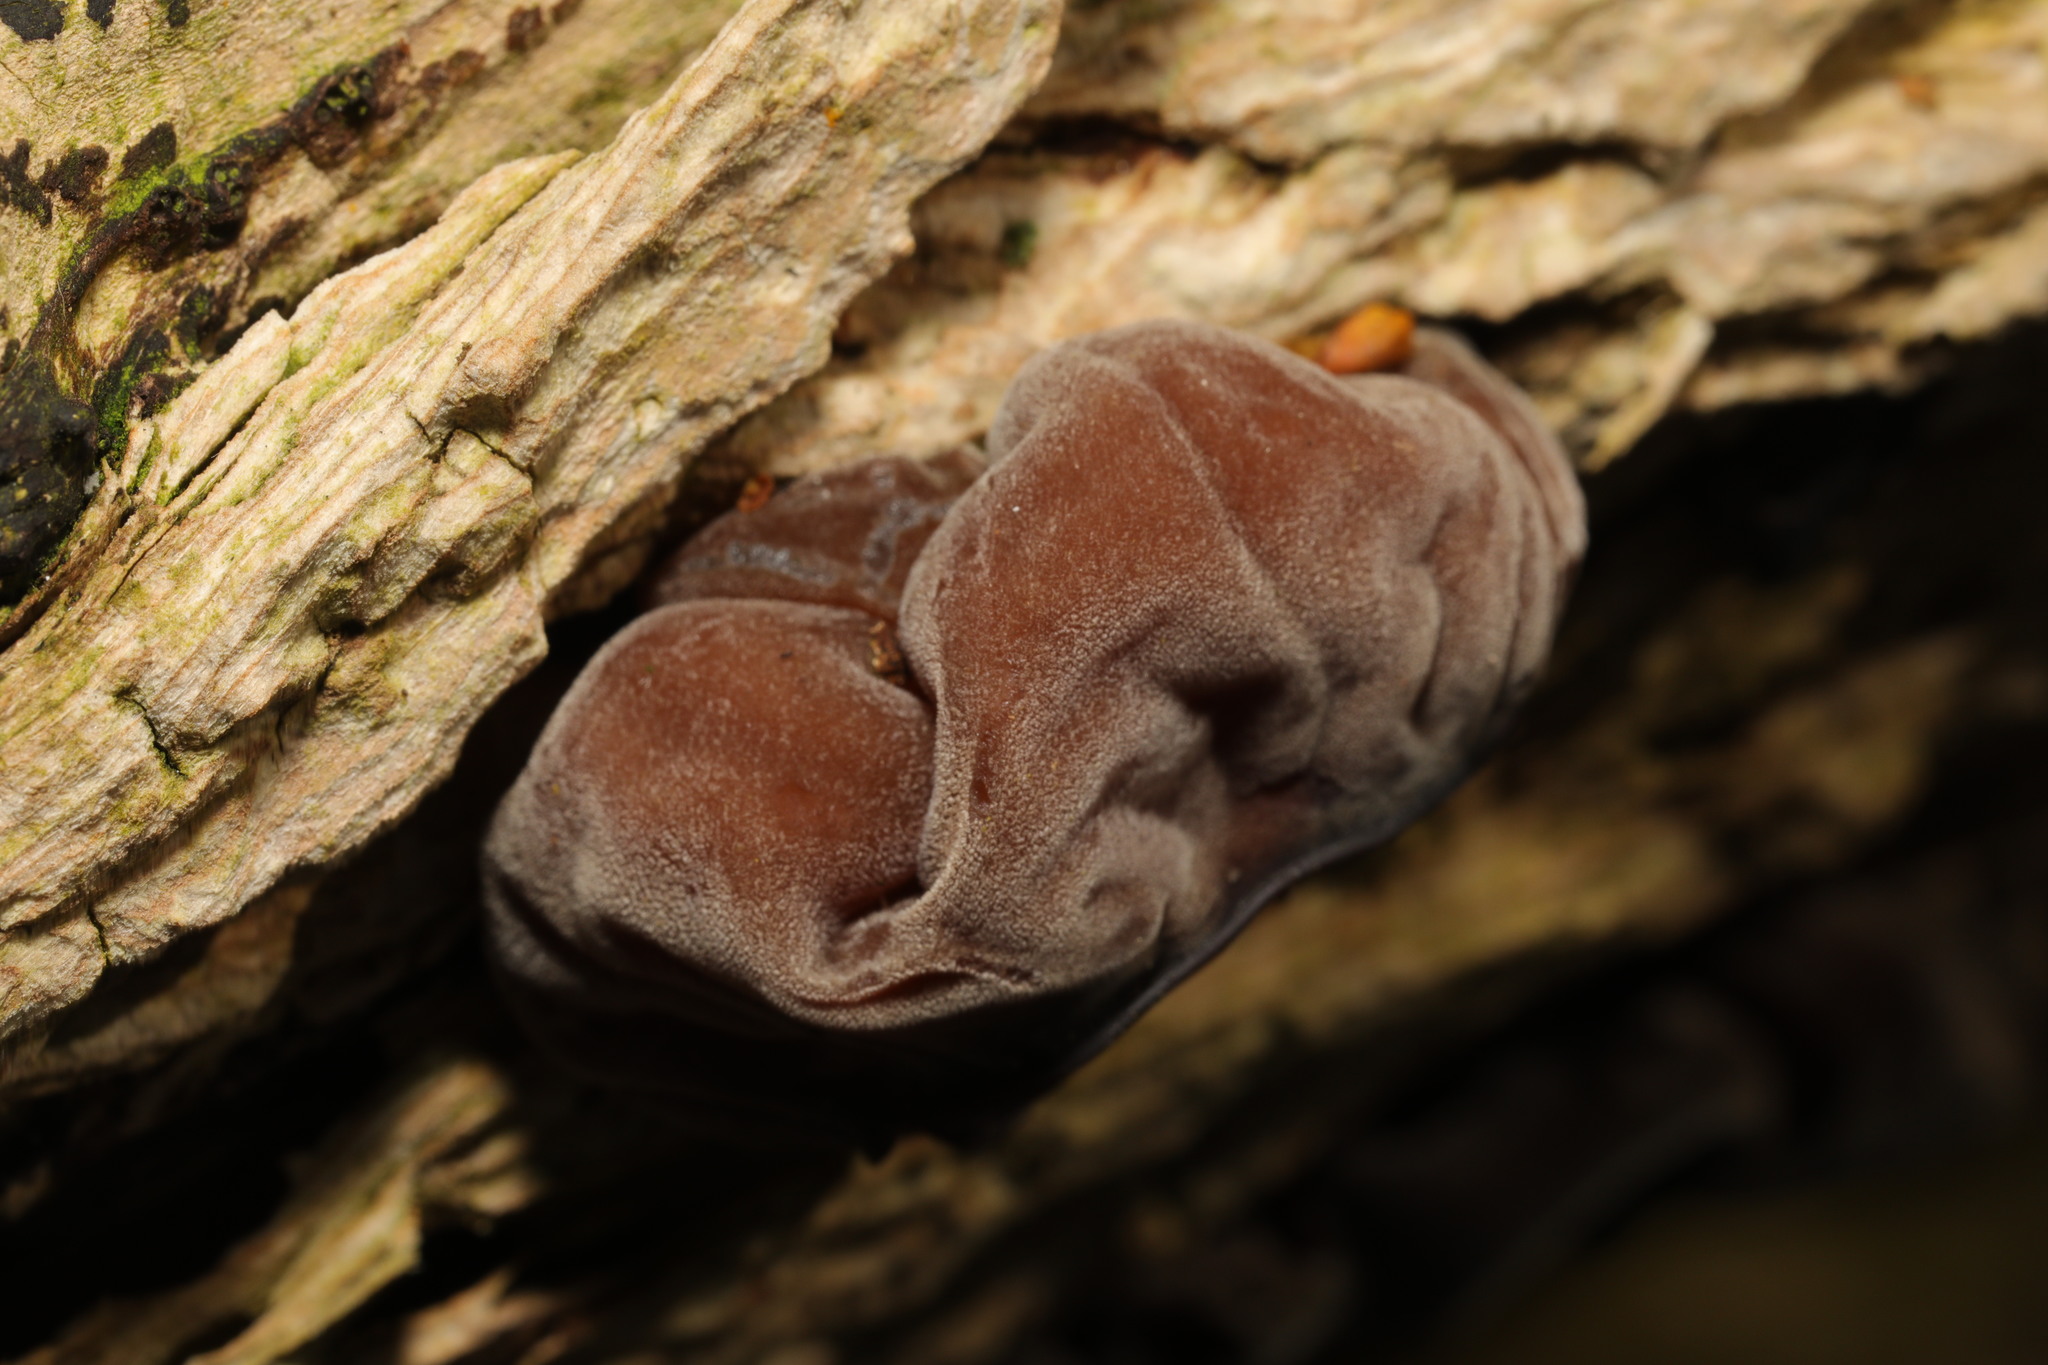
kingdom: Fungi
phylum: Basidiomycota
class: Agaricomycetes
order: Auriculariales
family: Auriculariaceae
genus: Auricularia
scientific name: Auricularia auricula-judae
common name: Jelly ear
